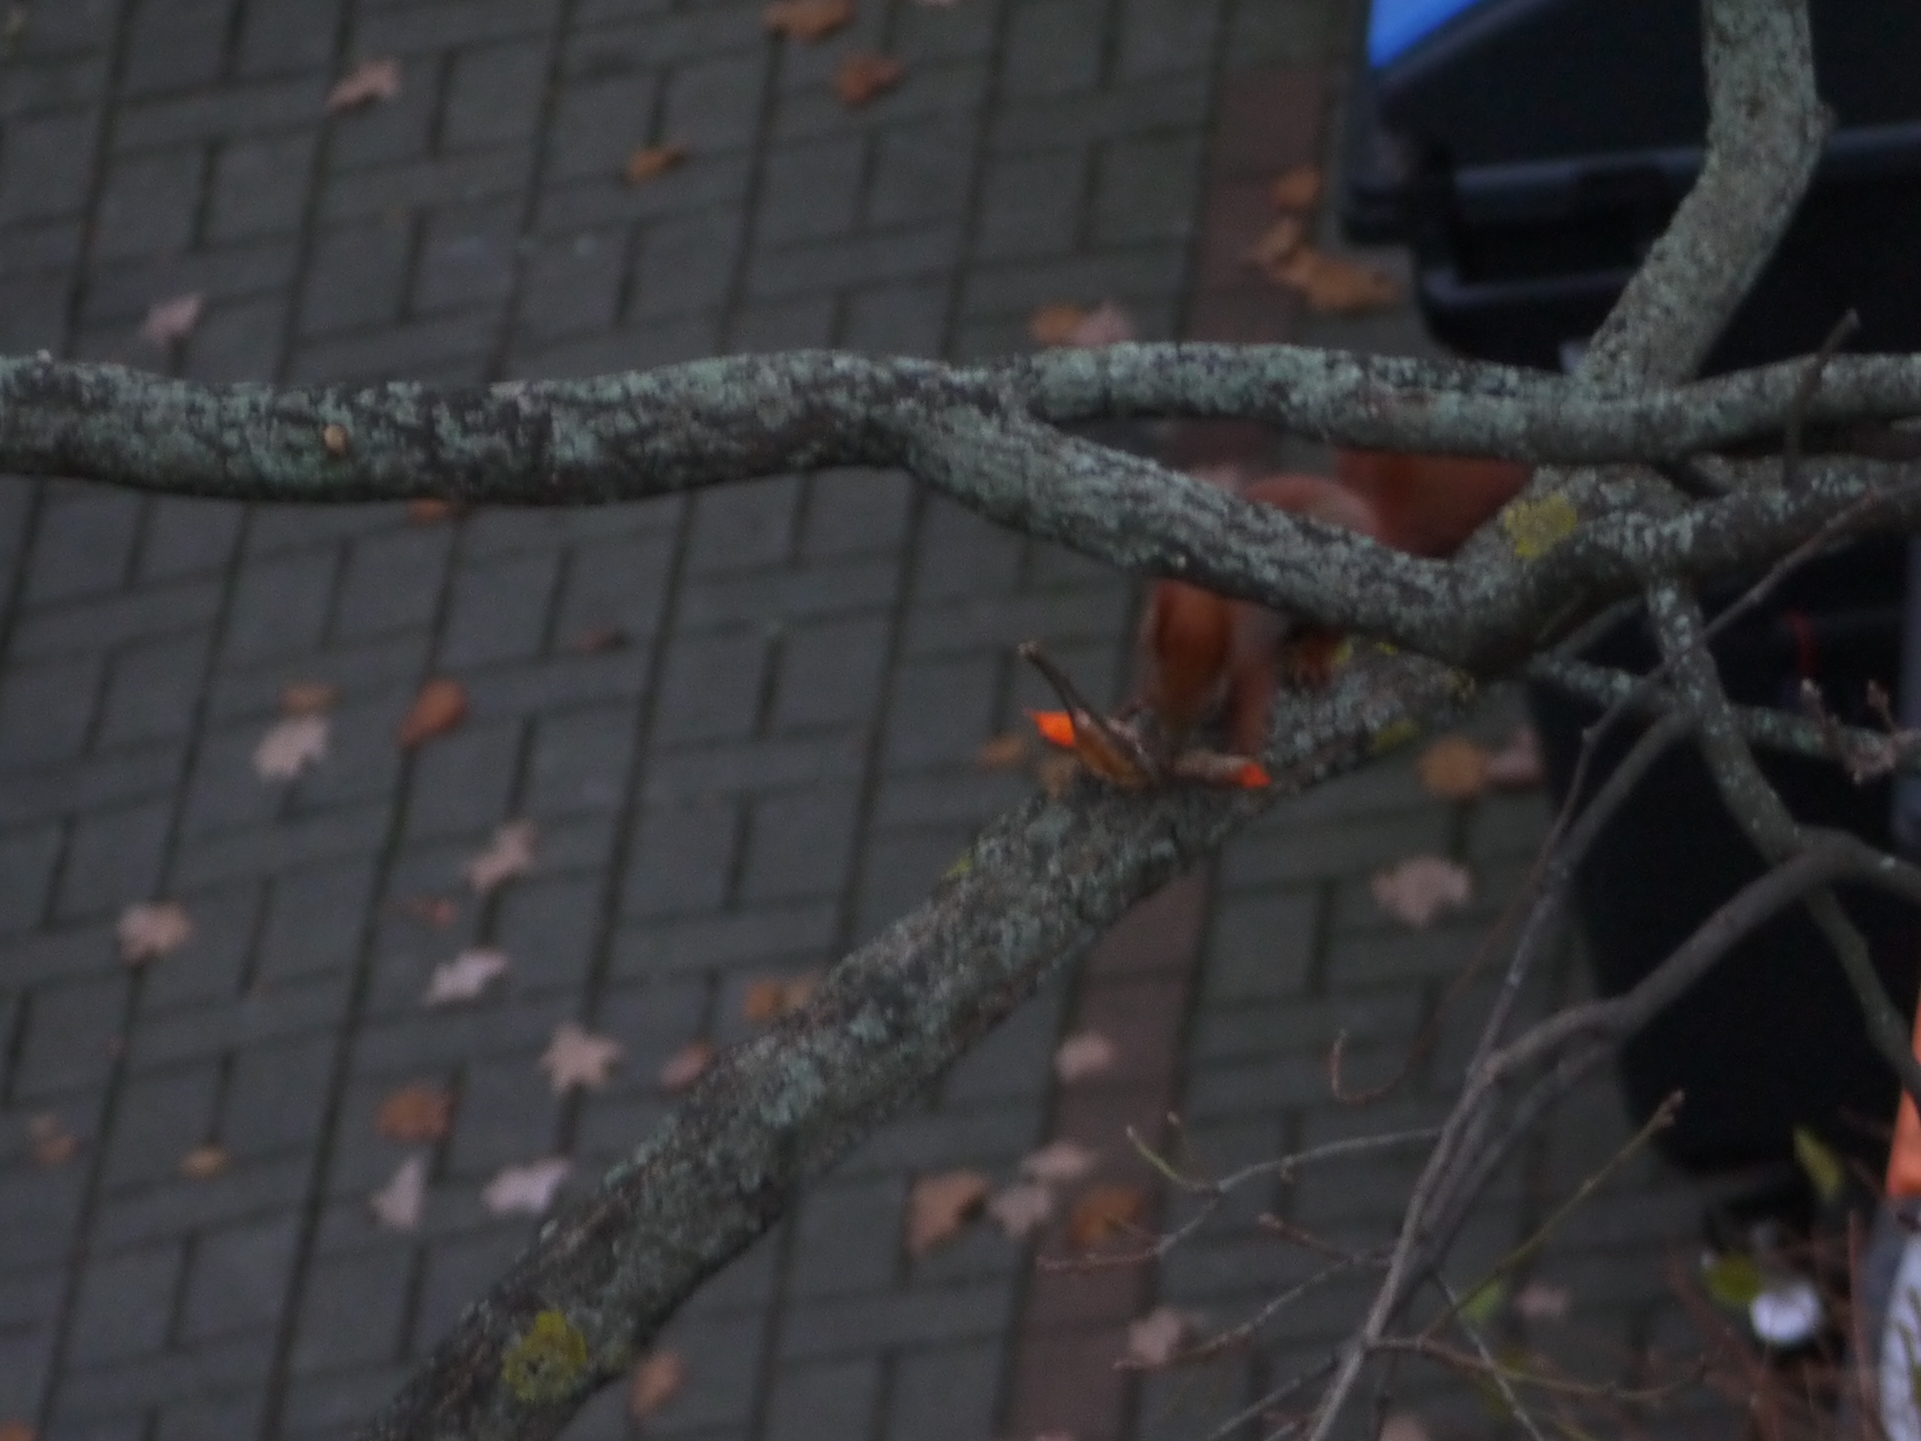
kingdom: Animalia
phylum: Chordata
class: Mammalia
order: Rodentia
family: Sciuridae
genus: Sciurus
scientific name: Sciurus vulgaris
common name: Eurasian red squirrel
